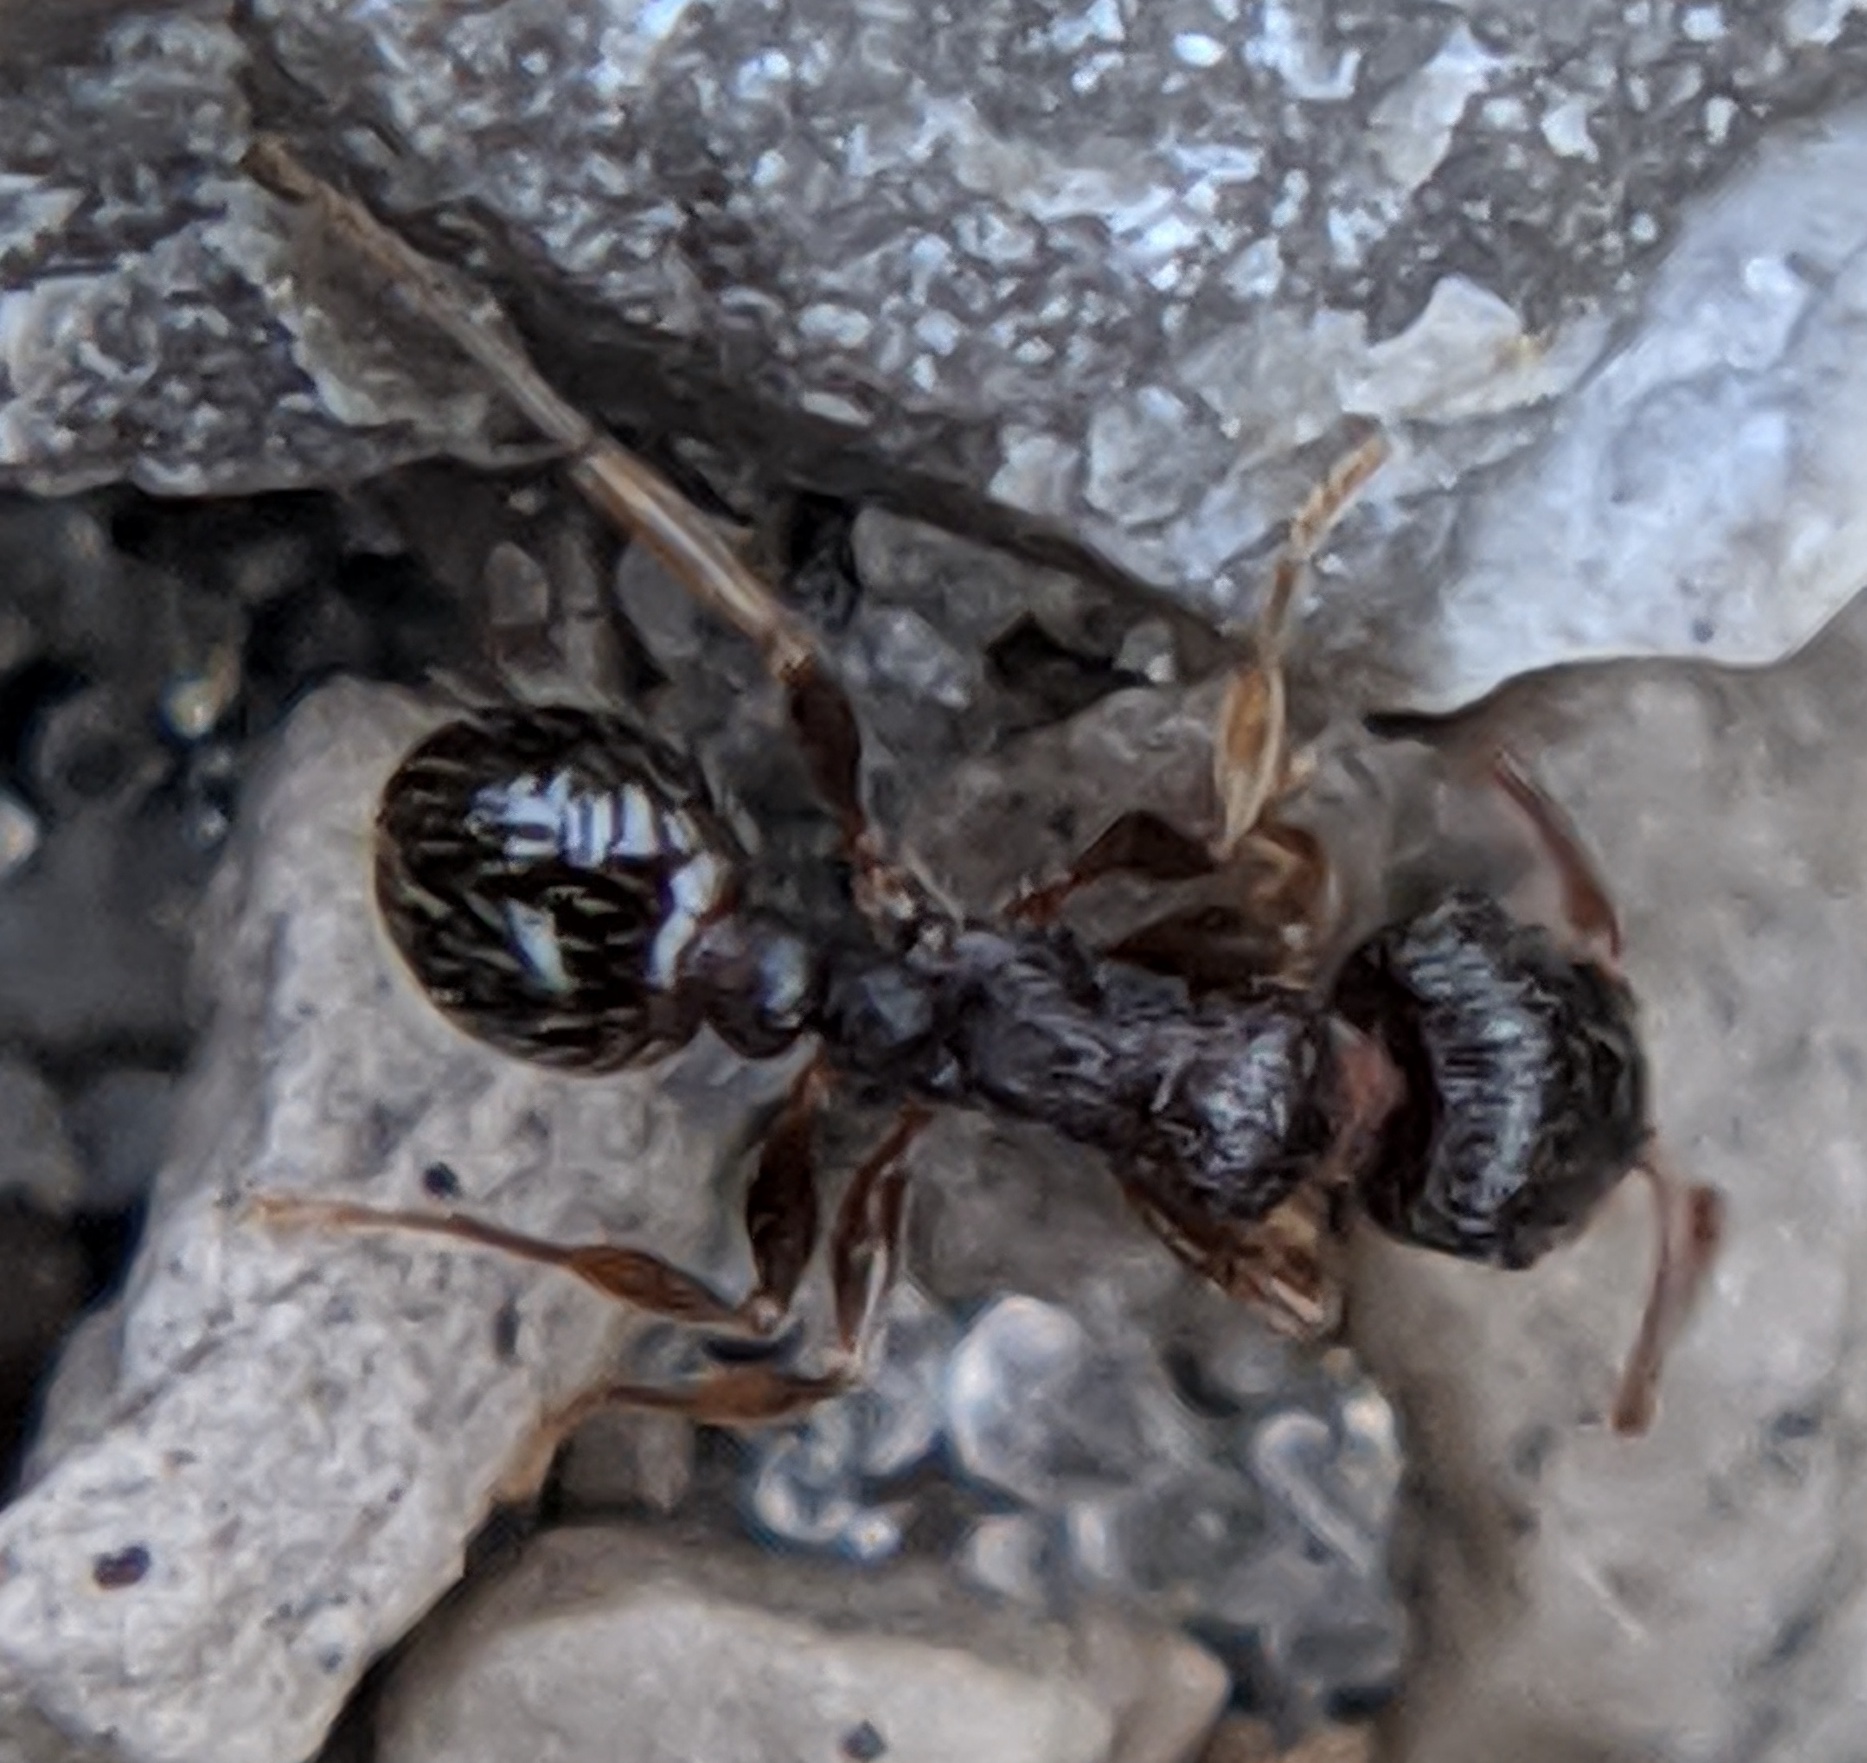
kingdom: Animalia
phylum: Arthropoda
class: Insecta
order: Hymenoptera
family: Formicidae
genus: Tetramorium
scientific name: Tetramorium immigrans
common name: Pavement ant
